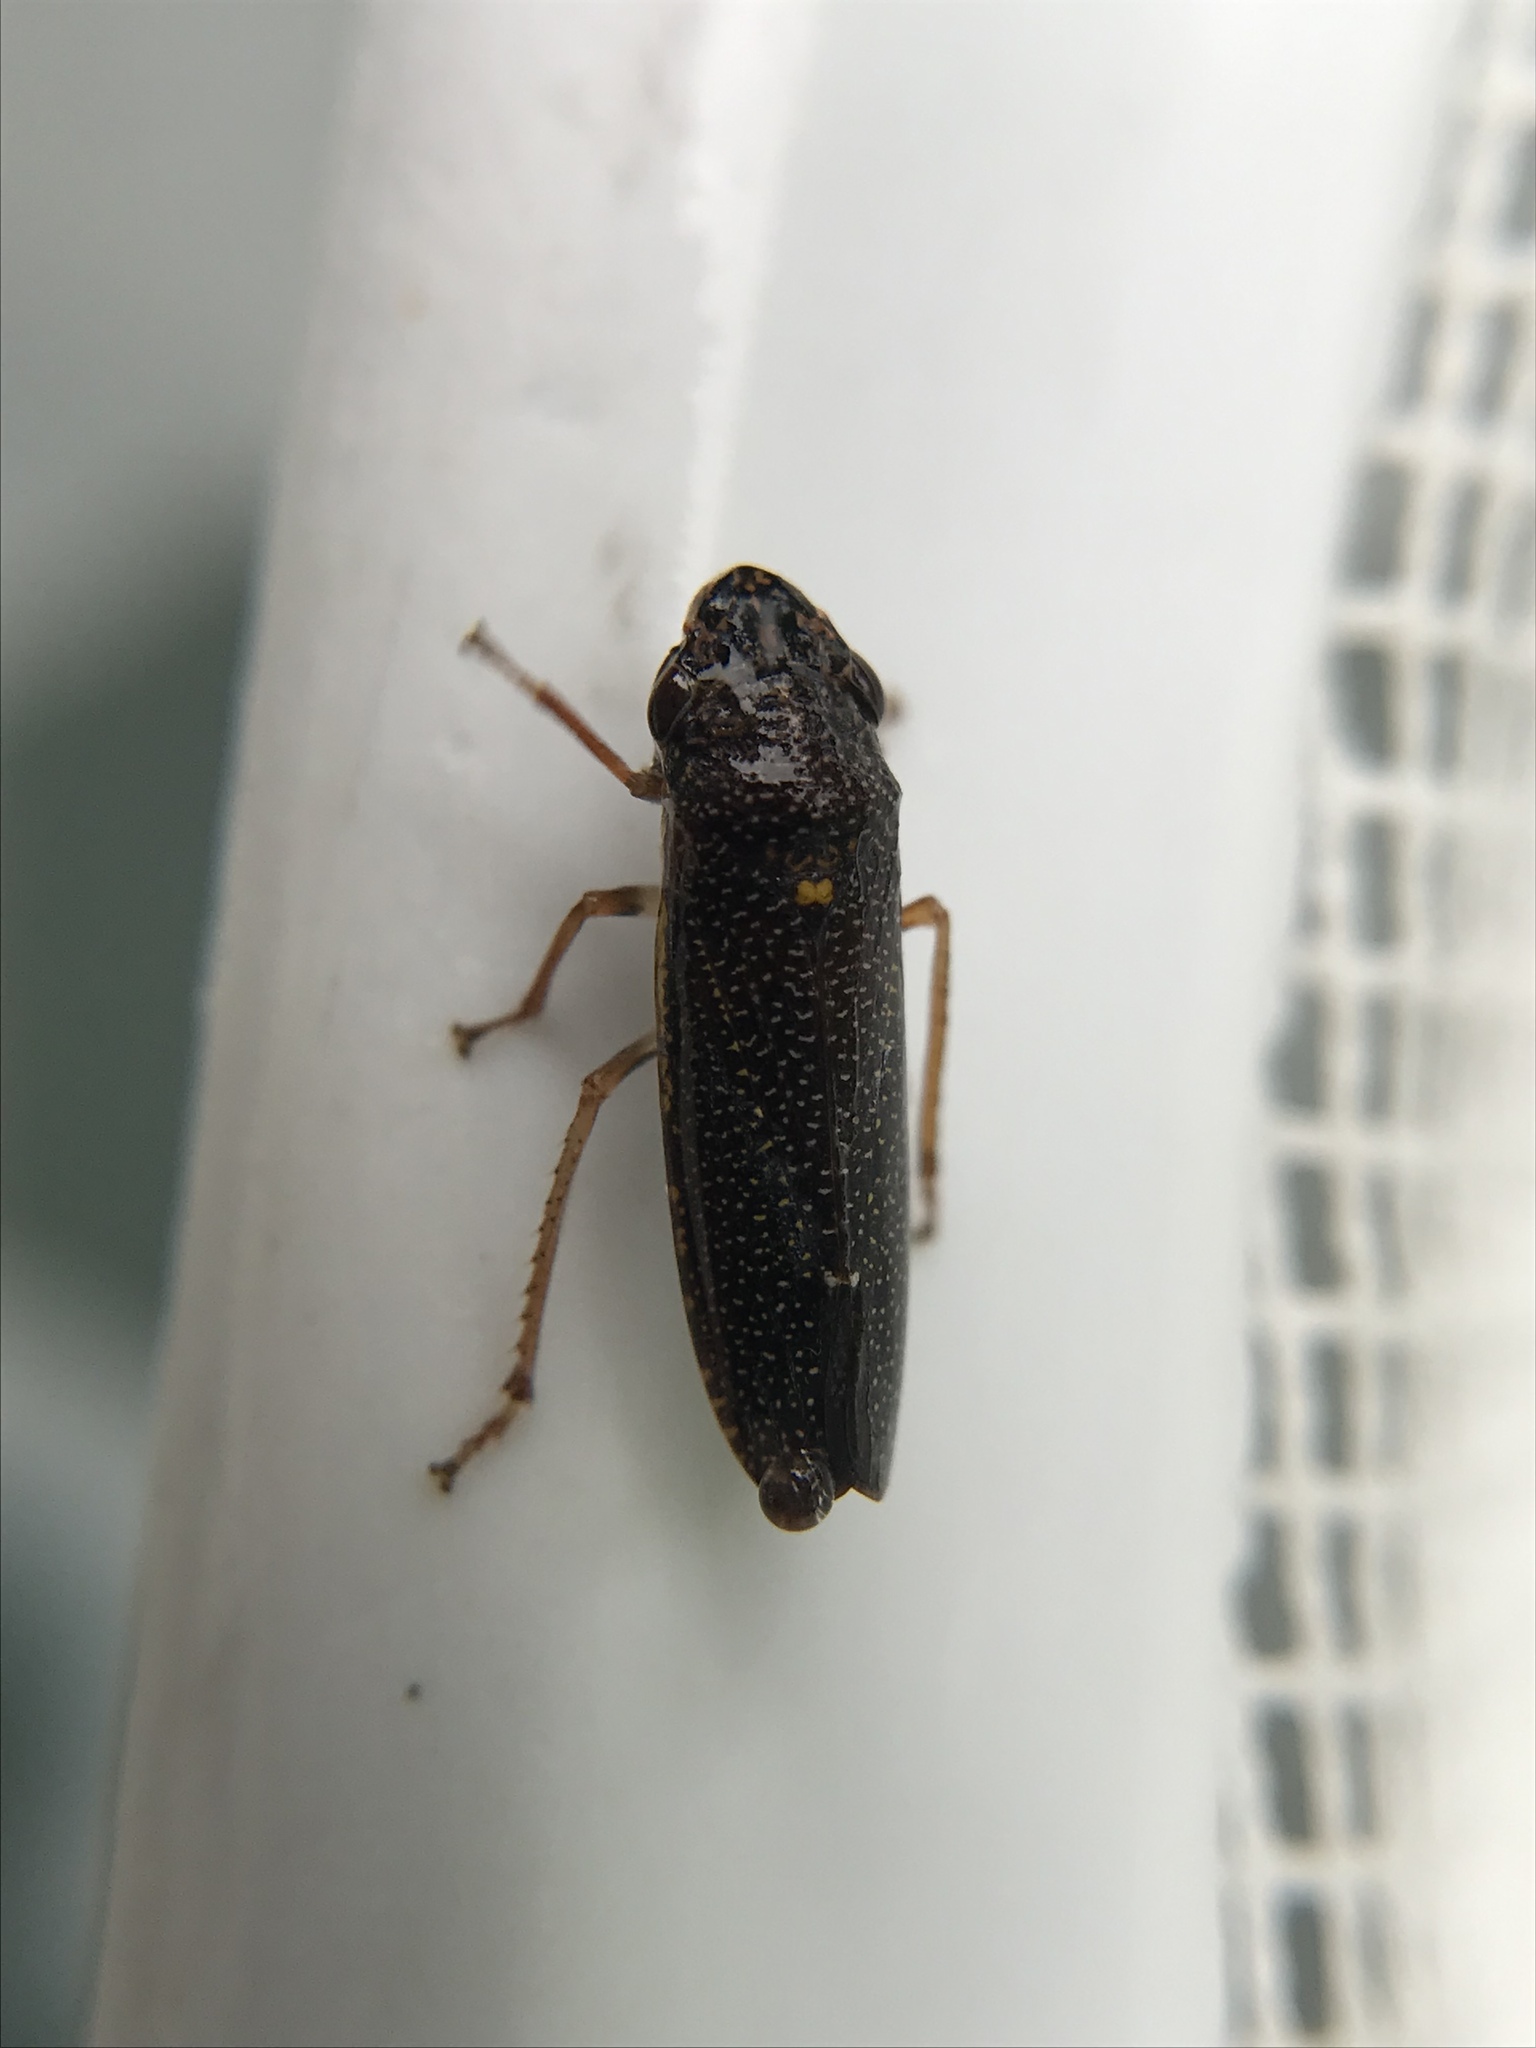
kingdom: Animalia
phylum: Arthropoda
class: Insecta
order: Hemiptera
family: Cicadellidae
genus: Paraulacizes
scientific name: Paraulacizes irrorata
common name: Speckled sharpshooter
